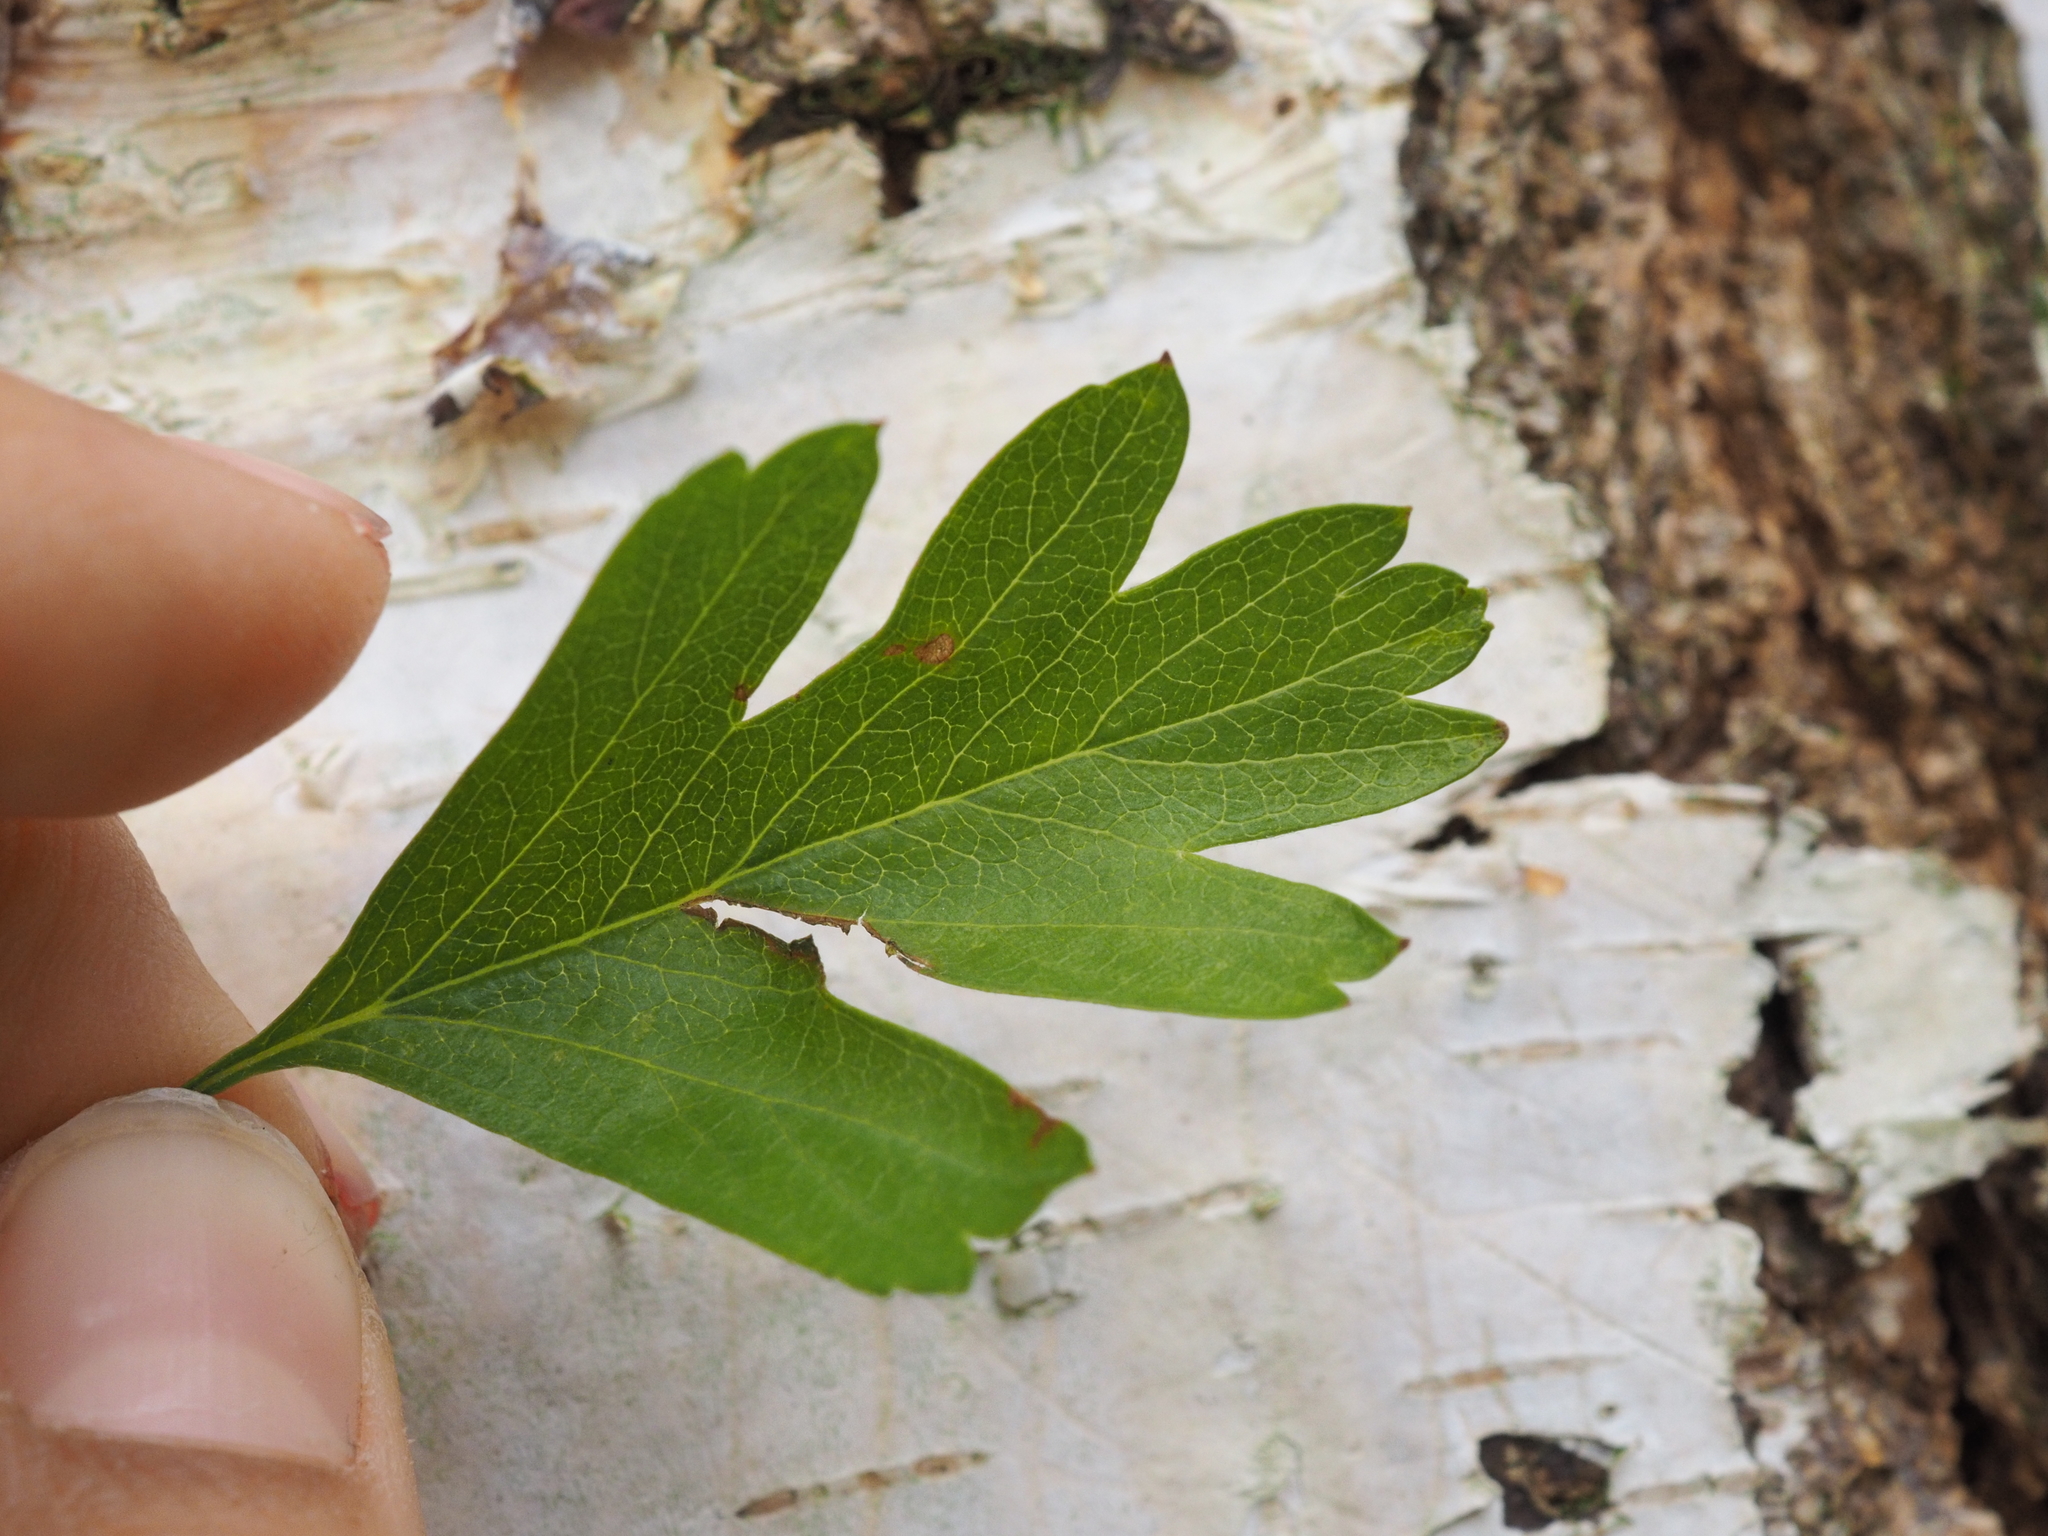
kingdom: Plantae
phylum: Tracheophyta
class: Magnoliopsida
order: Rosales
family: Rosaceae
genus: Crataegus
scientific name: Crataegus monogyna
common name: Hawthorn
